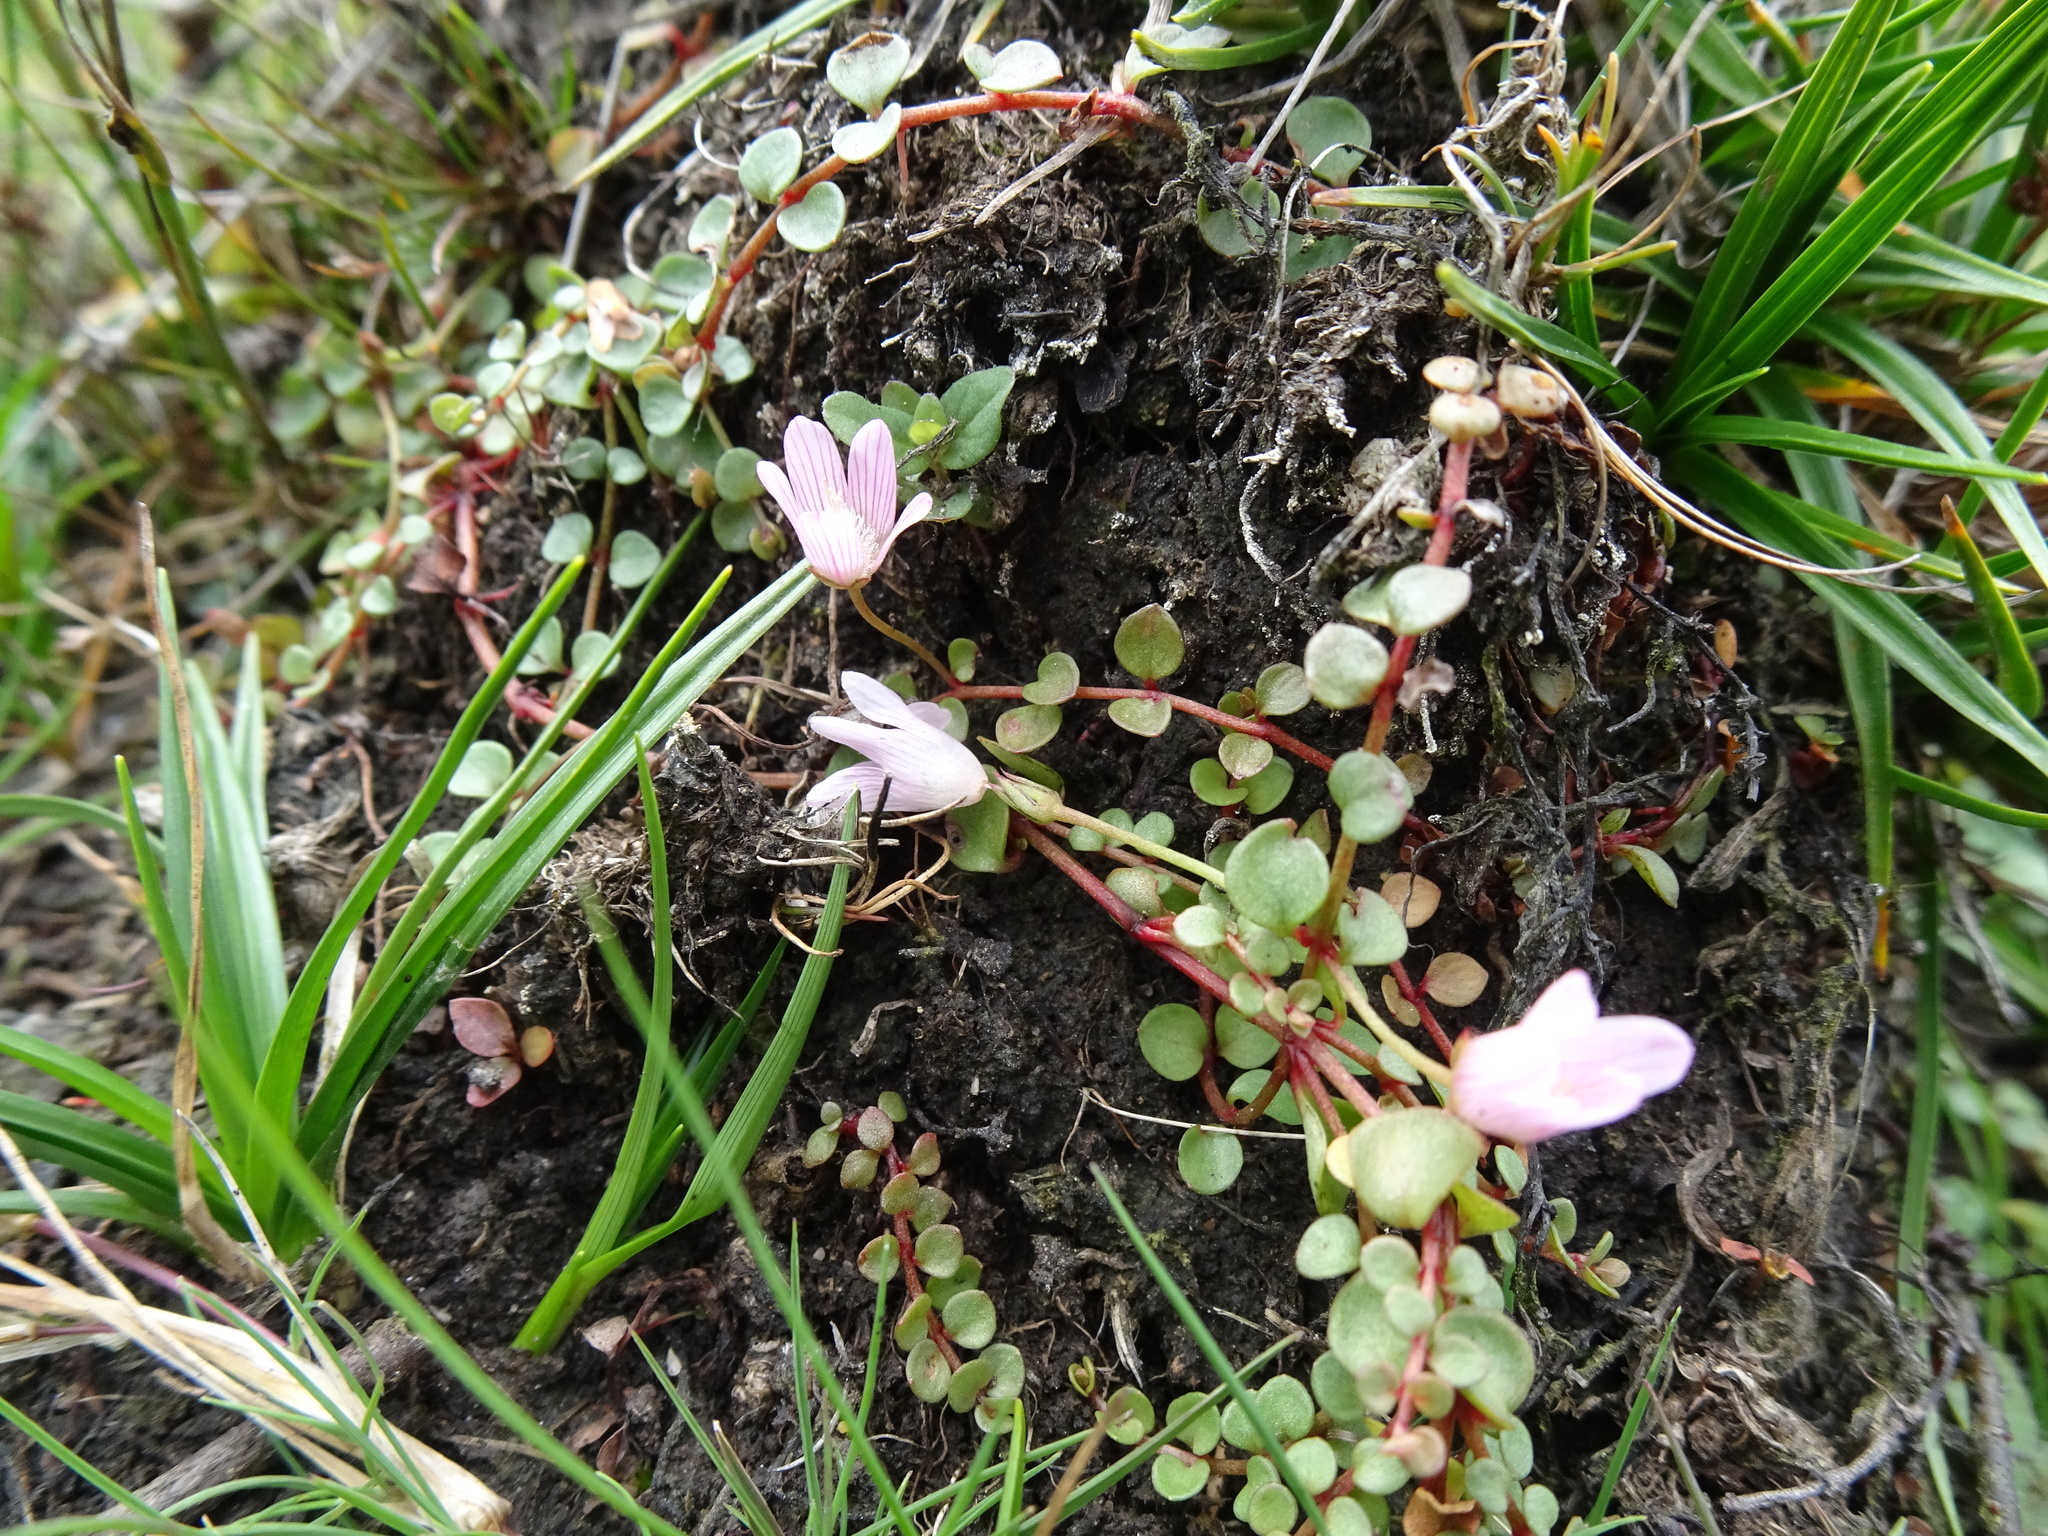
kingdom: Plantae
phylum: Tracheophyta
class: Magnoliopsida
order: Ericales
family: Primulaceae
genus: Lysimachia
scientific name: Lysimachia tenella
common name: European bog pimpernel
